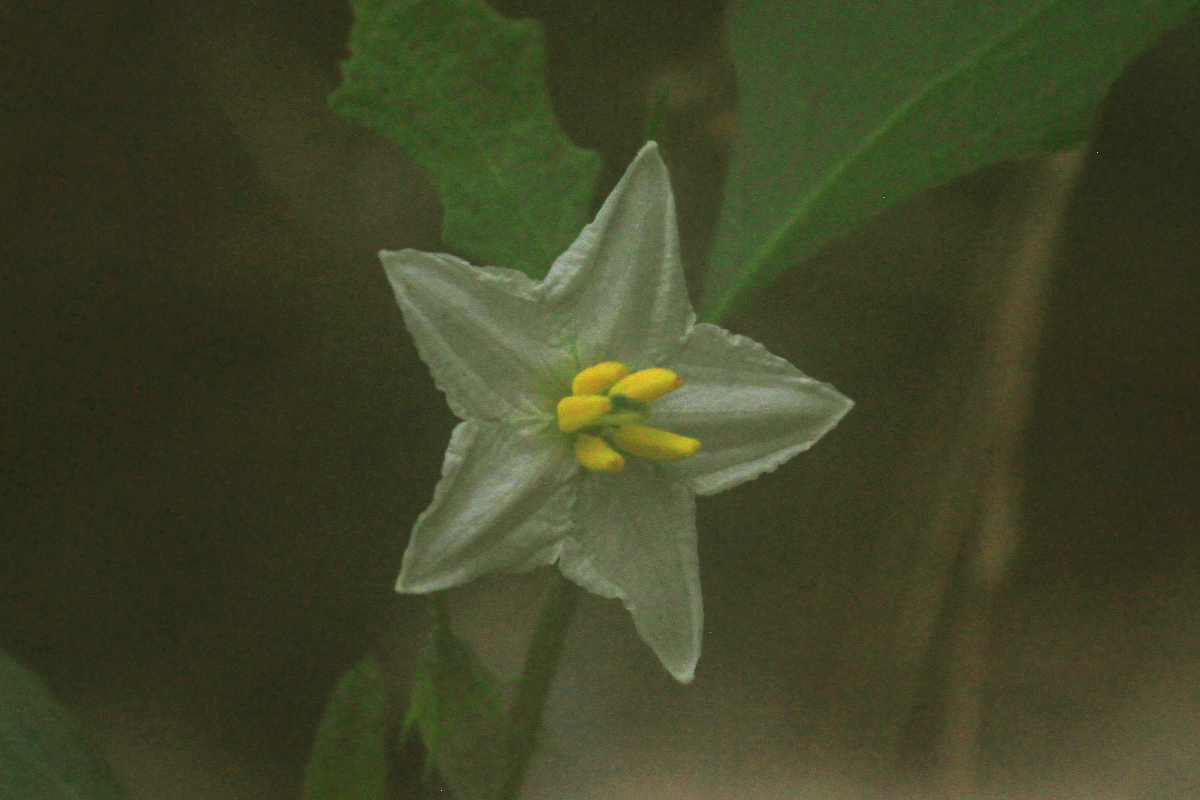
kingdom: Plantae
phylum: Tracheophyta
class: Magnoliopsida
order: Solanales
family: Solanaceae
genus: Solanum
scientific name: Solanum carolinense
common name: Horse-nettle
